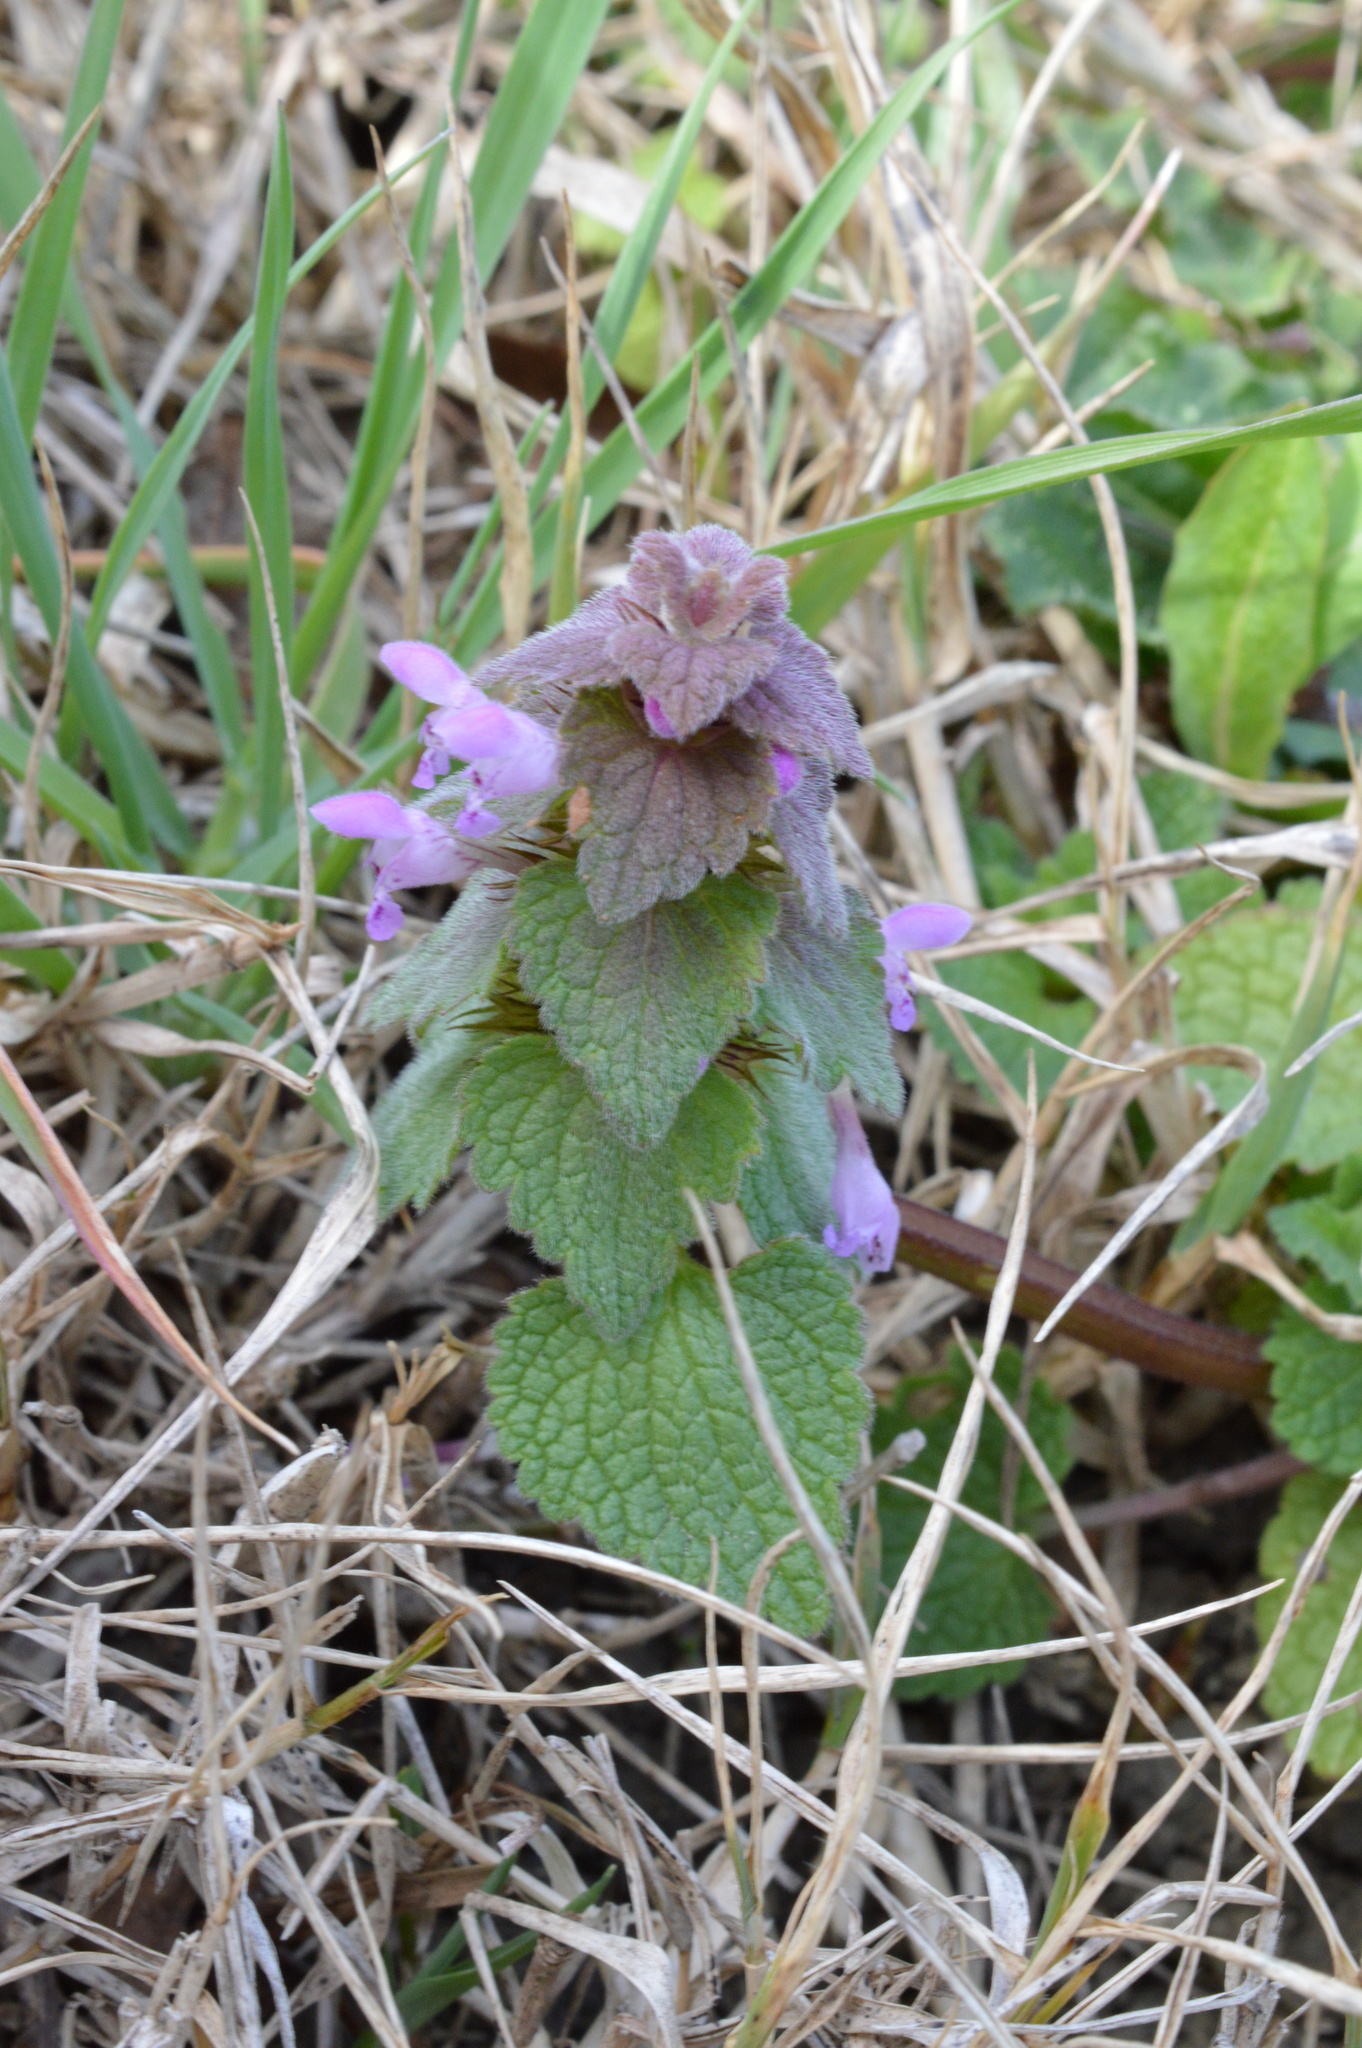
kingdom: Plantae
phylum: Tracheophyta
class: Magnoliopsida
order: Lamiales
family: Lamiaceae
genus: Lamium
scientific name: Lamium purpureum
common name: Red dead-nettle
